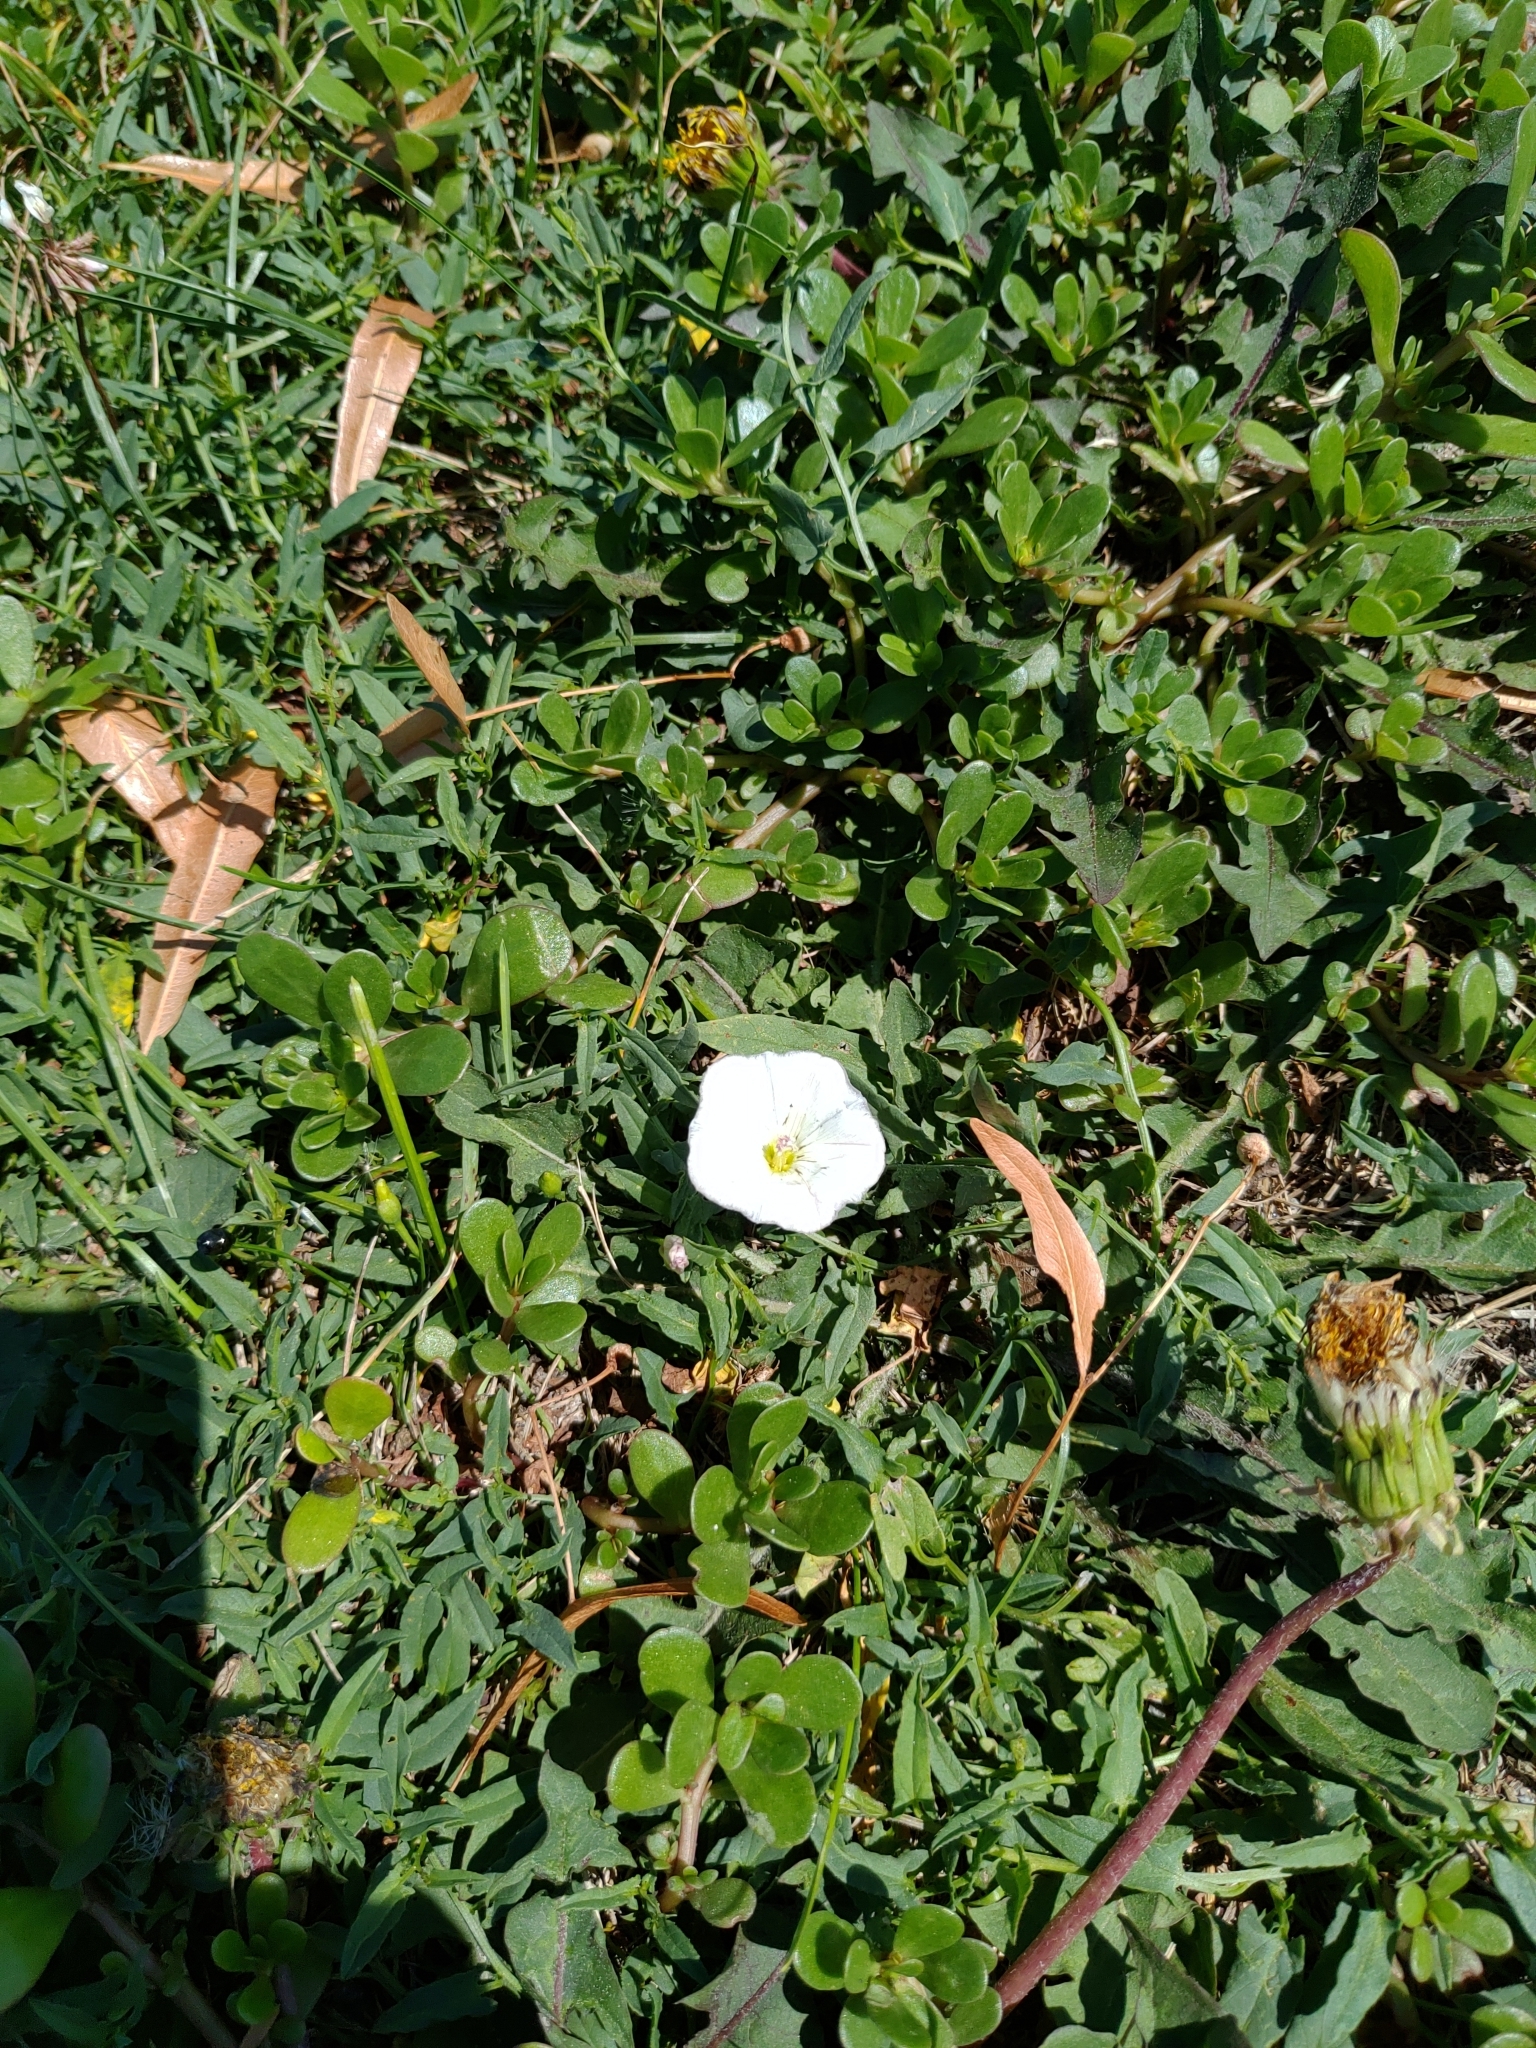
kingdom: Plantae
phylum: Tracheophyta
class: Magnoliopsida
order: Solanales
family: Convolvulaceae
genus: Convolvulus
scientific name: Convolvulus arvensis
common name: Field bindweed
